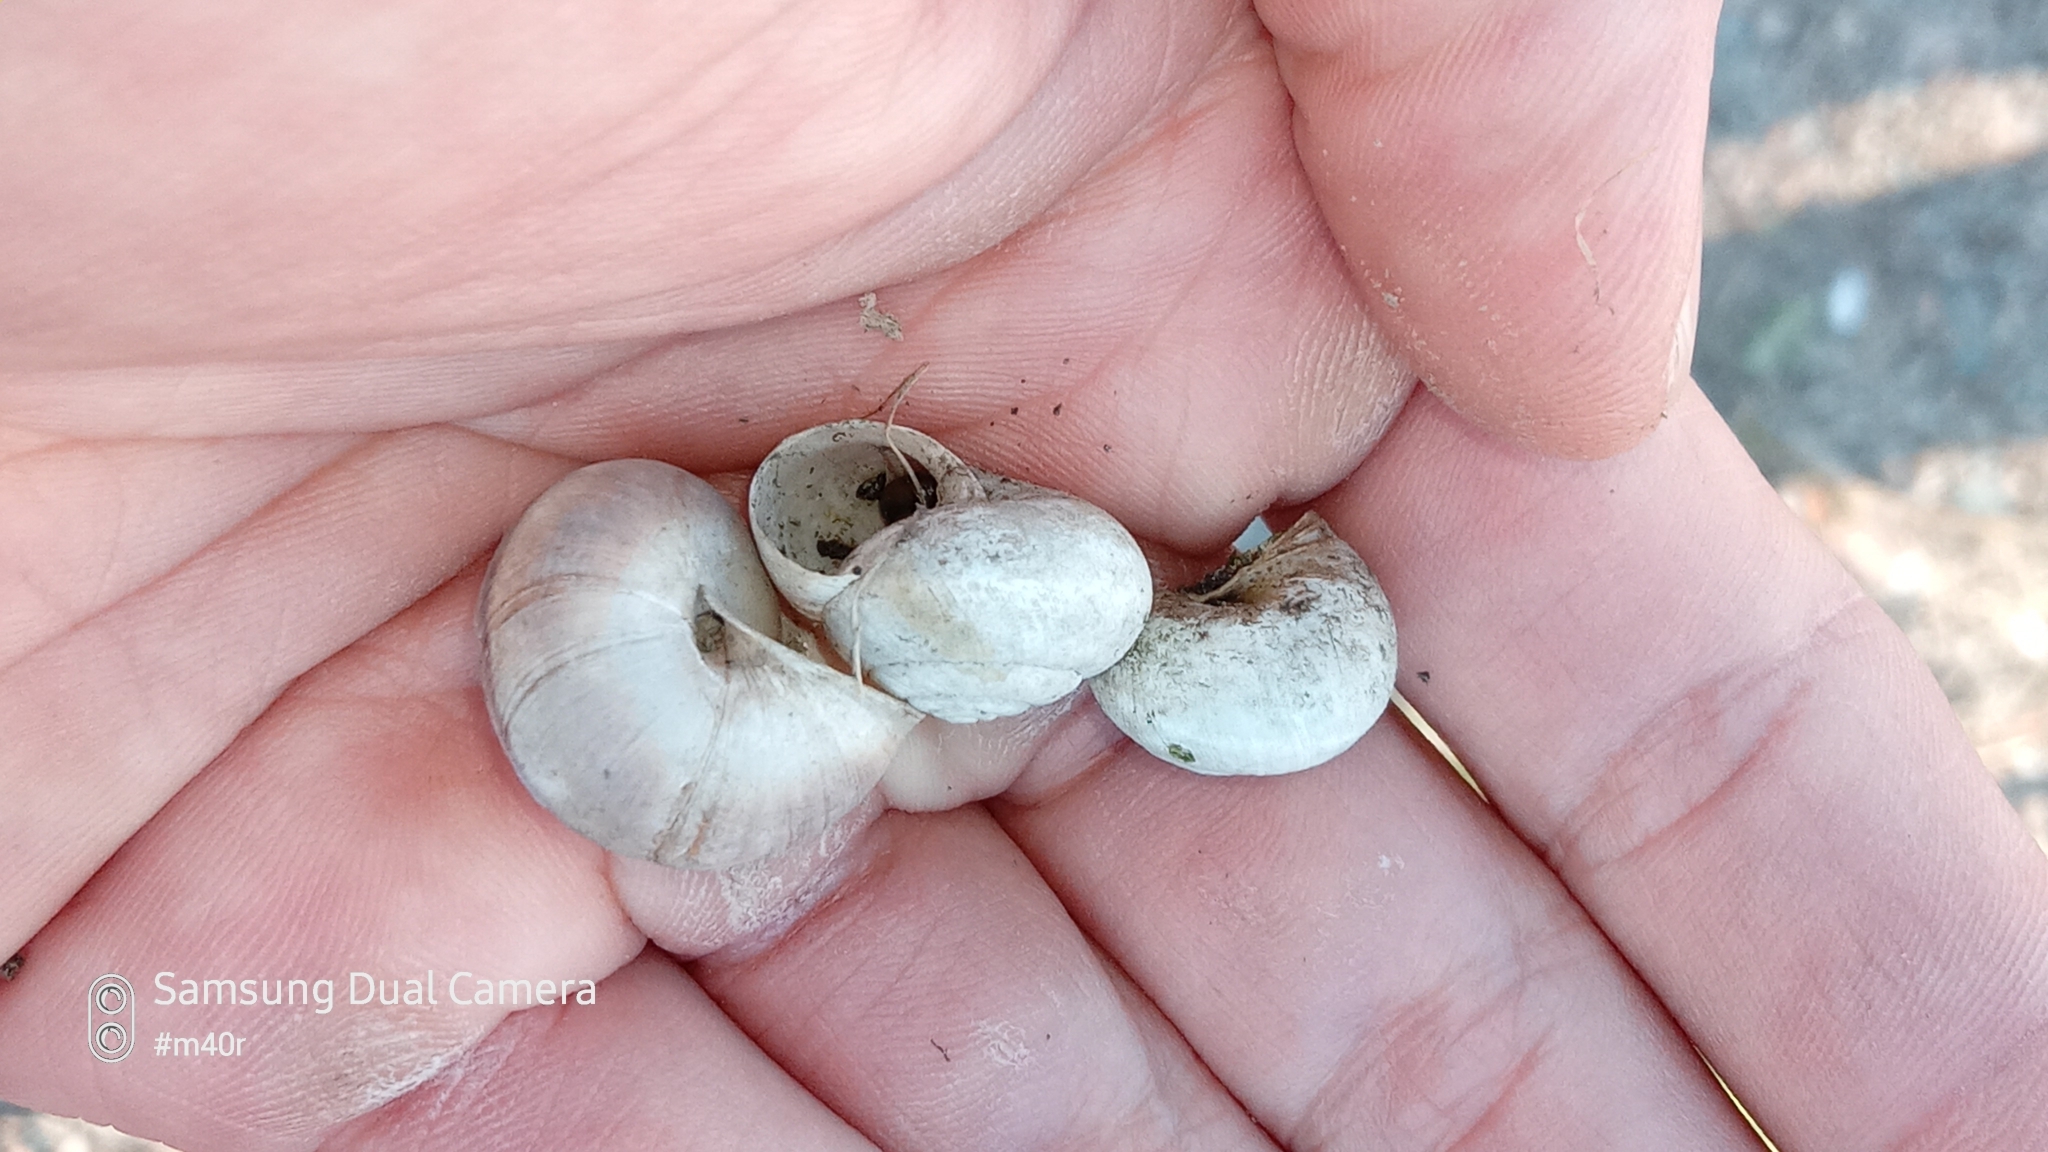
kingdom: Animalia
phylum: Mollusca
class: Gastropoda
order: Stylommatophora
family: Camaenidae
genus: Fruticicola
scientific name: Fruticicola lantzi
